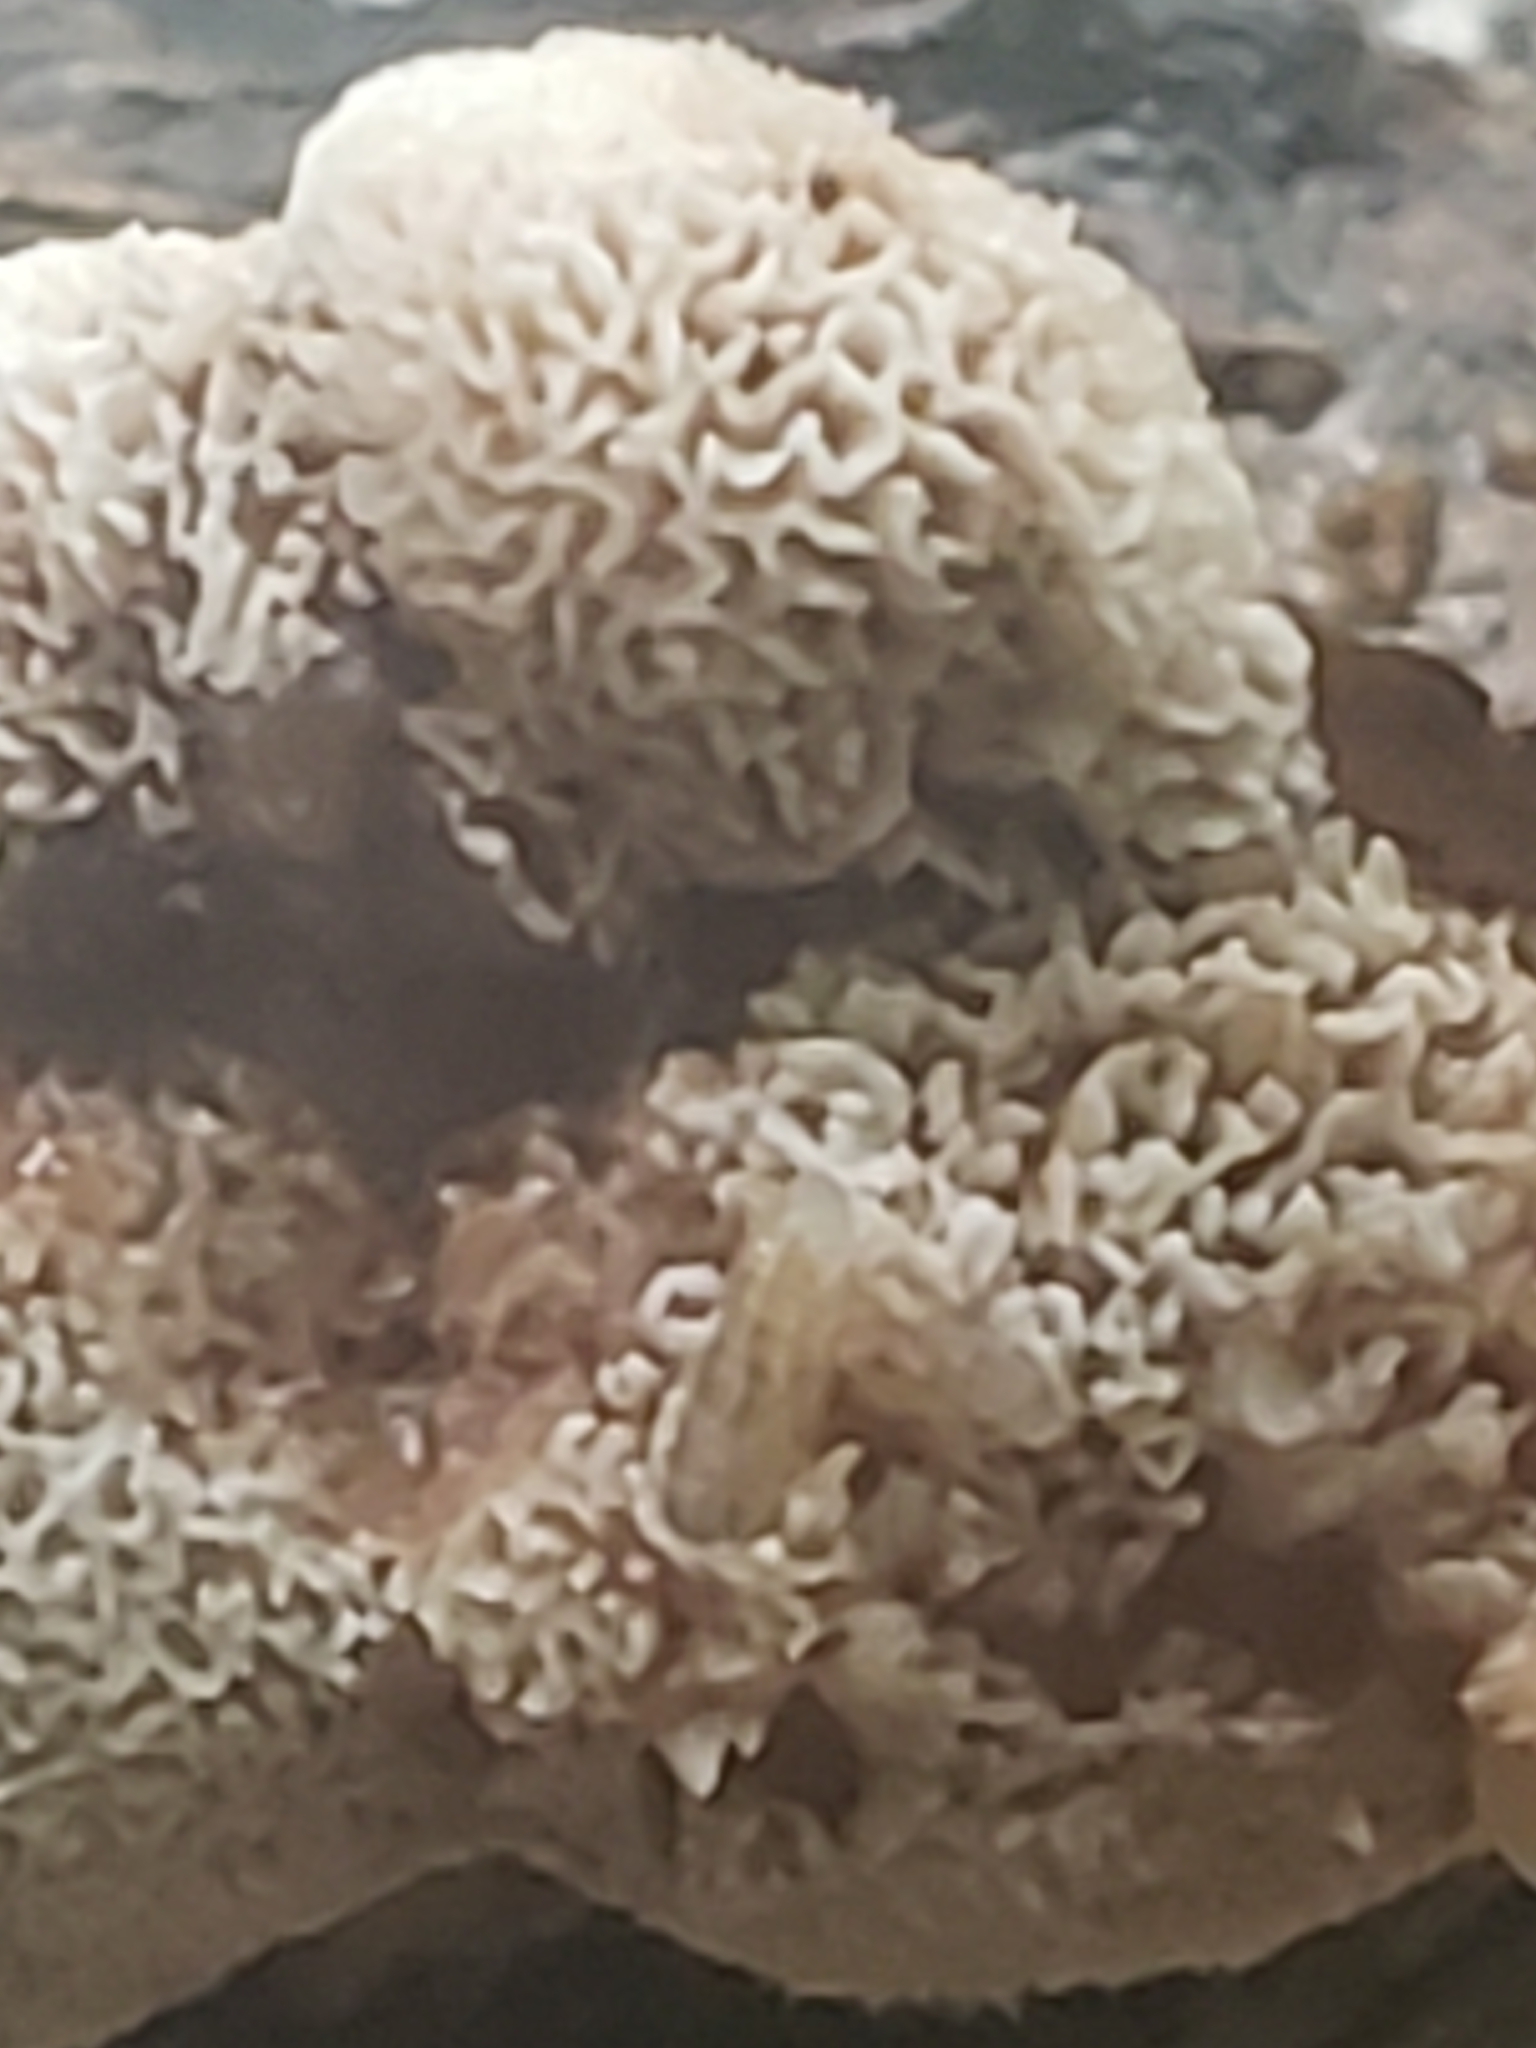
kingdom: Fungi
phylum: Basidiomycota
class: Agaricomycetes
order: Polyporales
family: Podoscyphaceae
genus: Abortiporus
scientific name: Abortiporus biennis
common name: Blushing rosette
